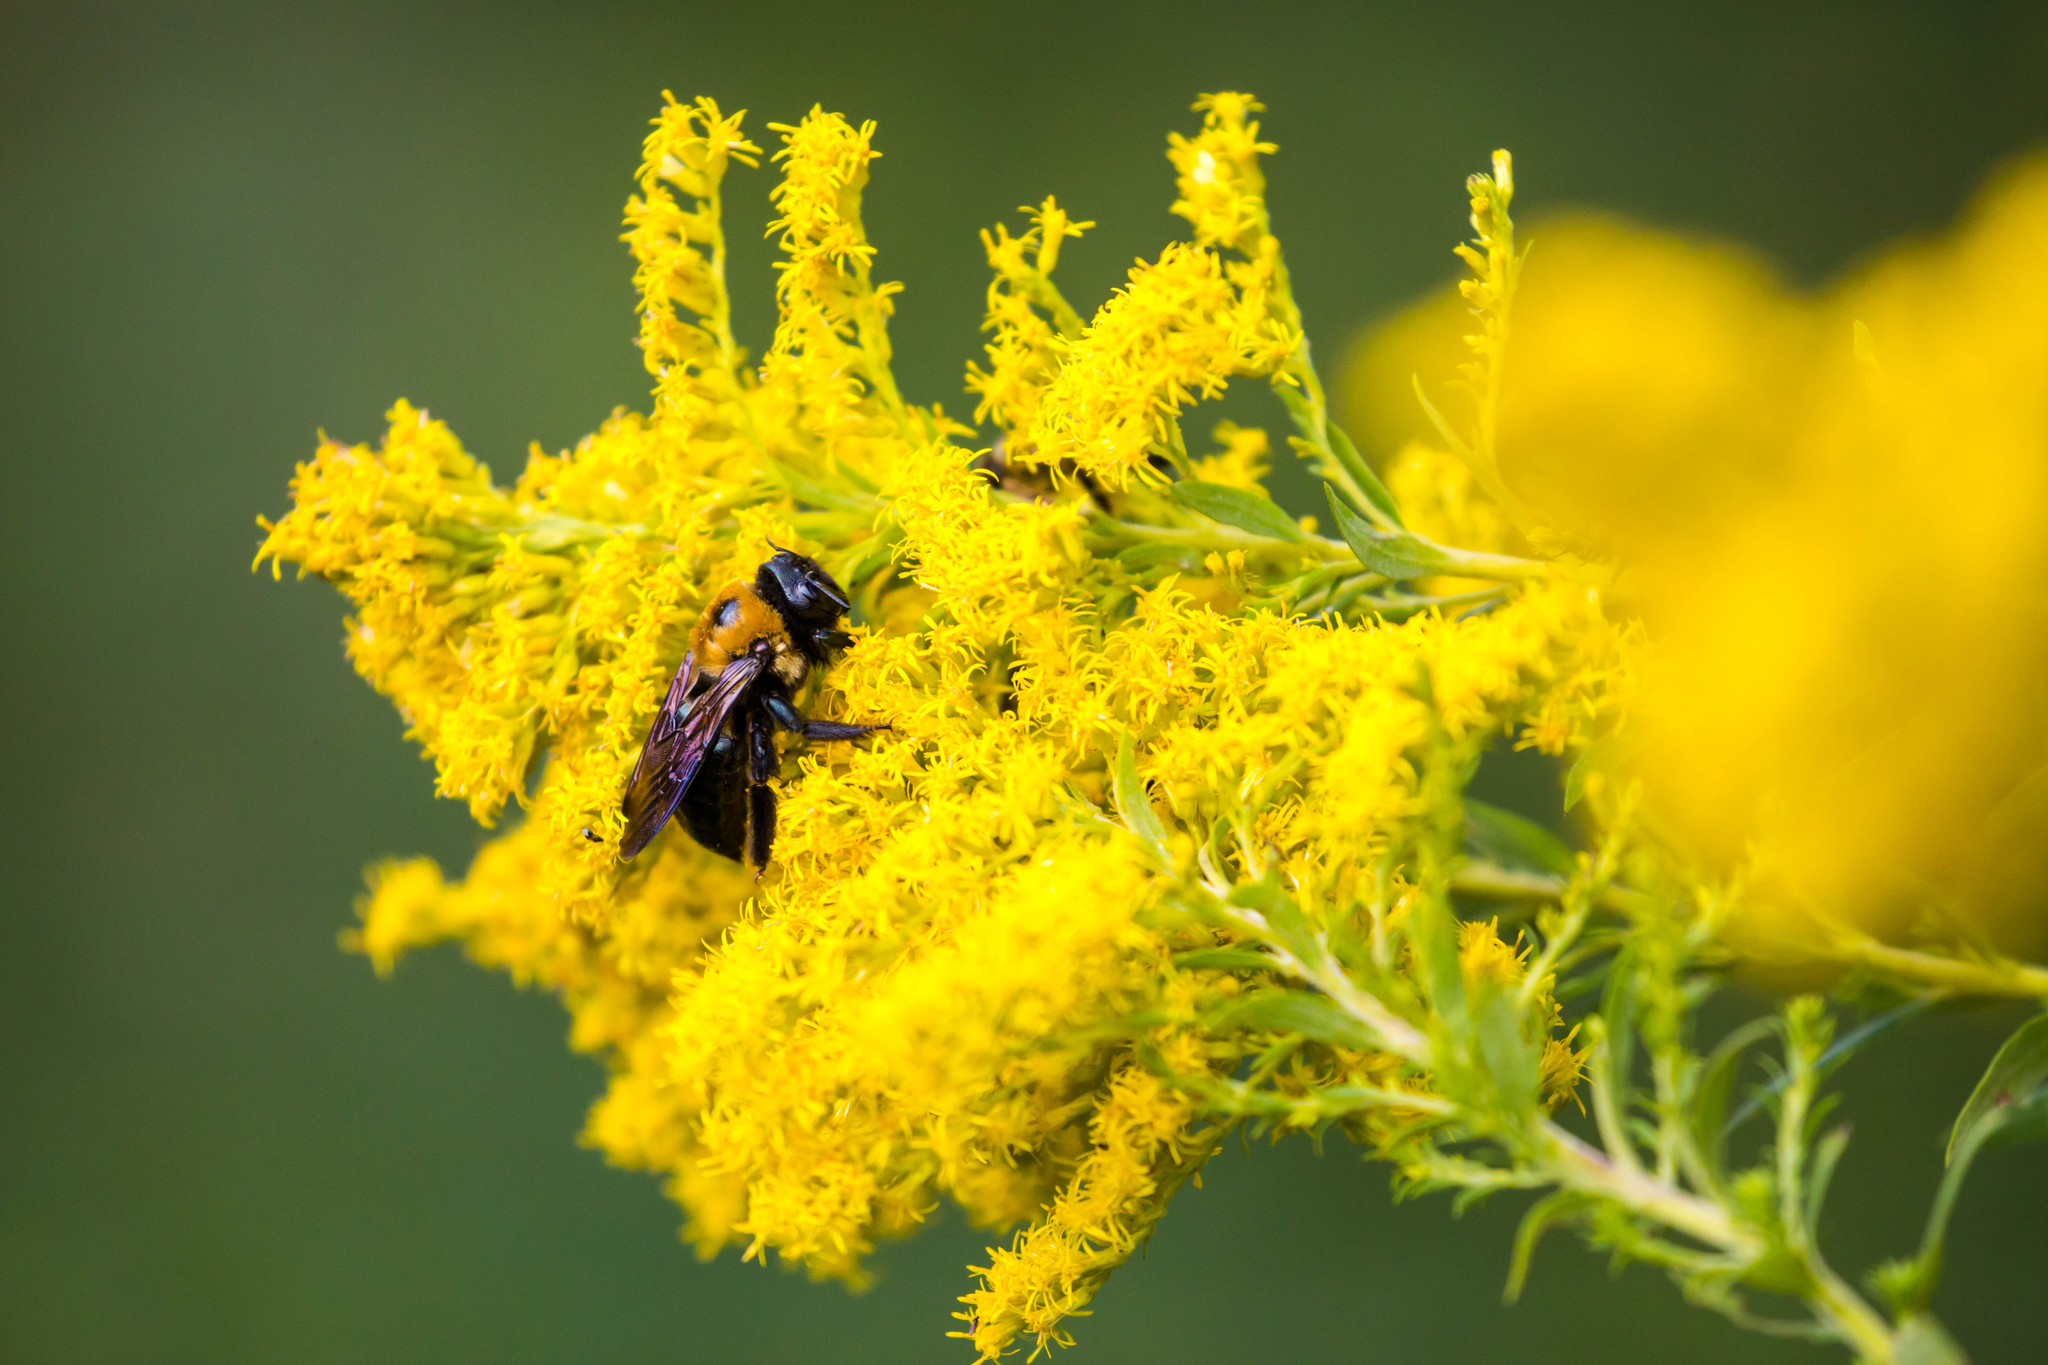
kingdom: Animalia
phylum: Arthropoda
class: Insecta
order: Hymenoptera
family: Apidae
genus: Xylocopa
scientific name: Xylocopa virginica
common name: Carpenter bee
